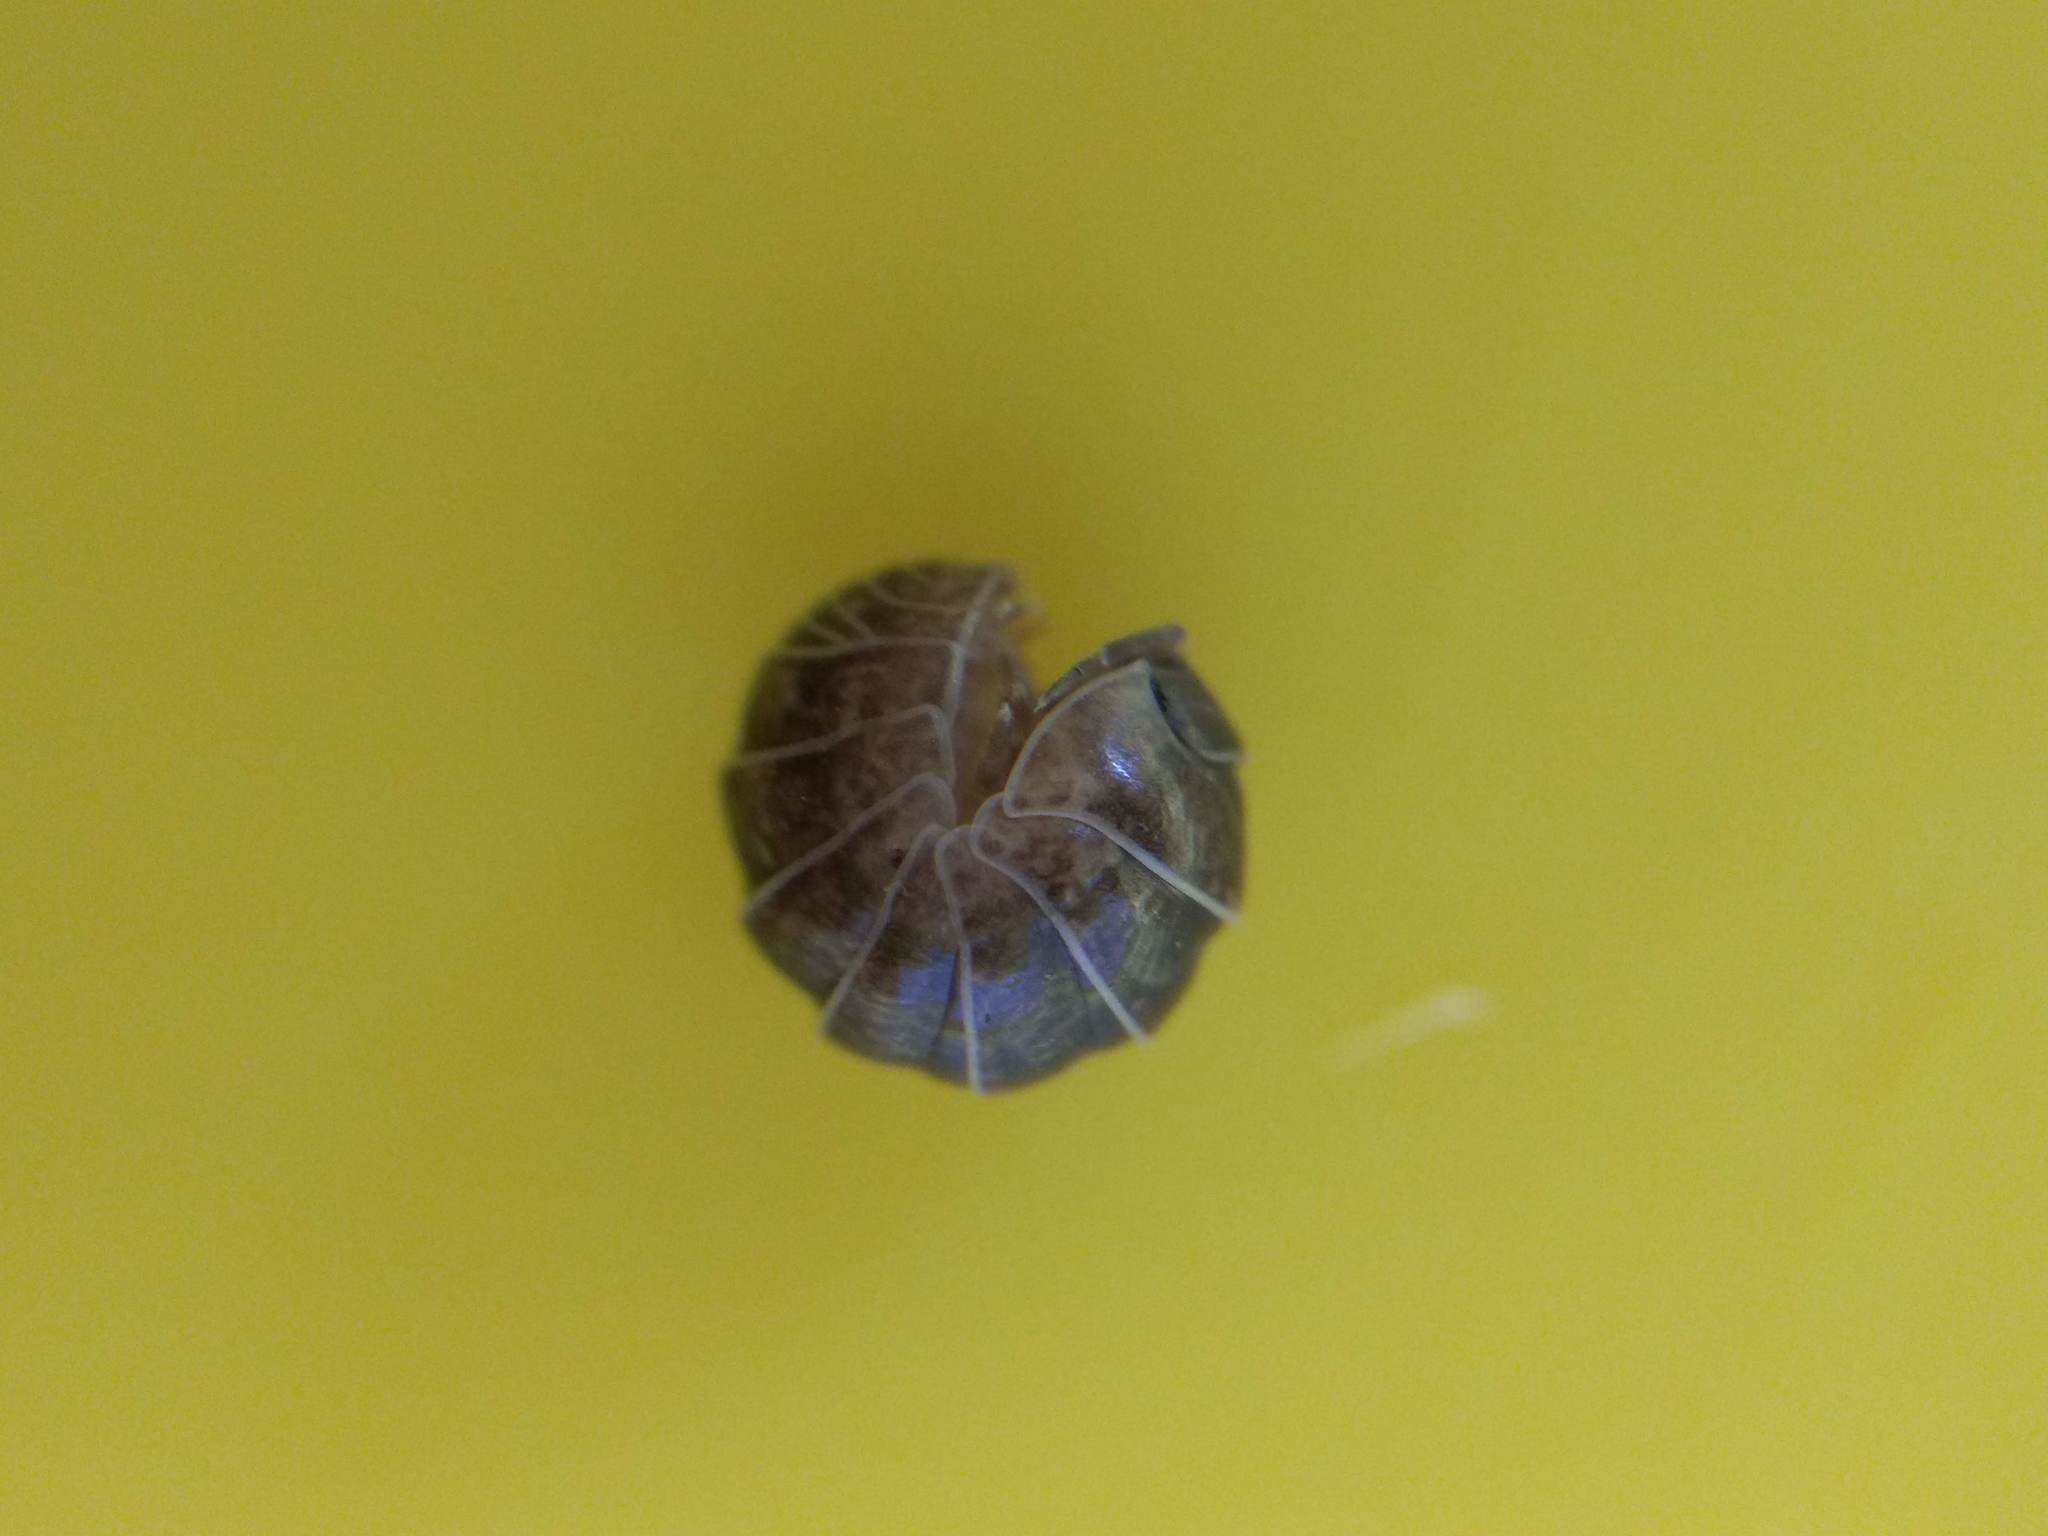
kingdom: Animalia
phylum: Arthropoda
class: Malacostraca
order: Isopoda
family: Armadillidiidae
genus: Armadillidium
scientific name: Armadillidium vulgare
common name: Common pill woodlouse
